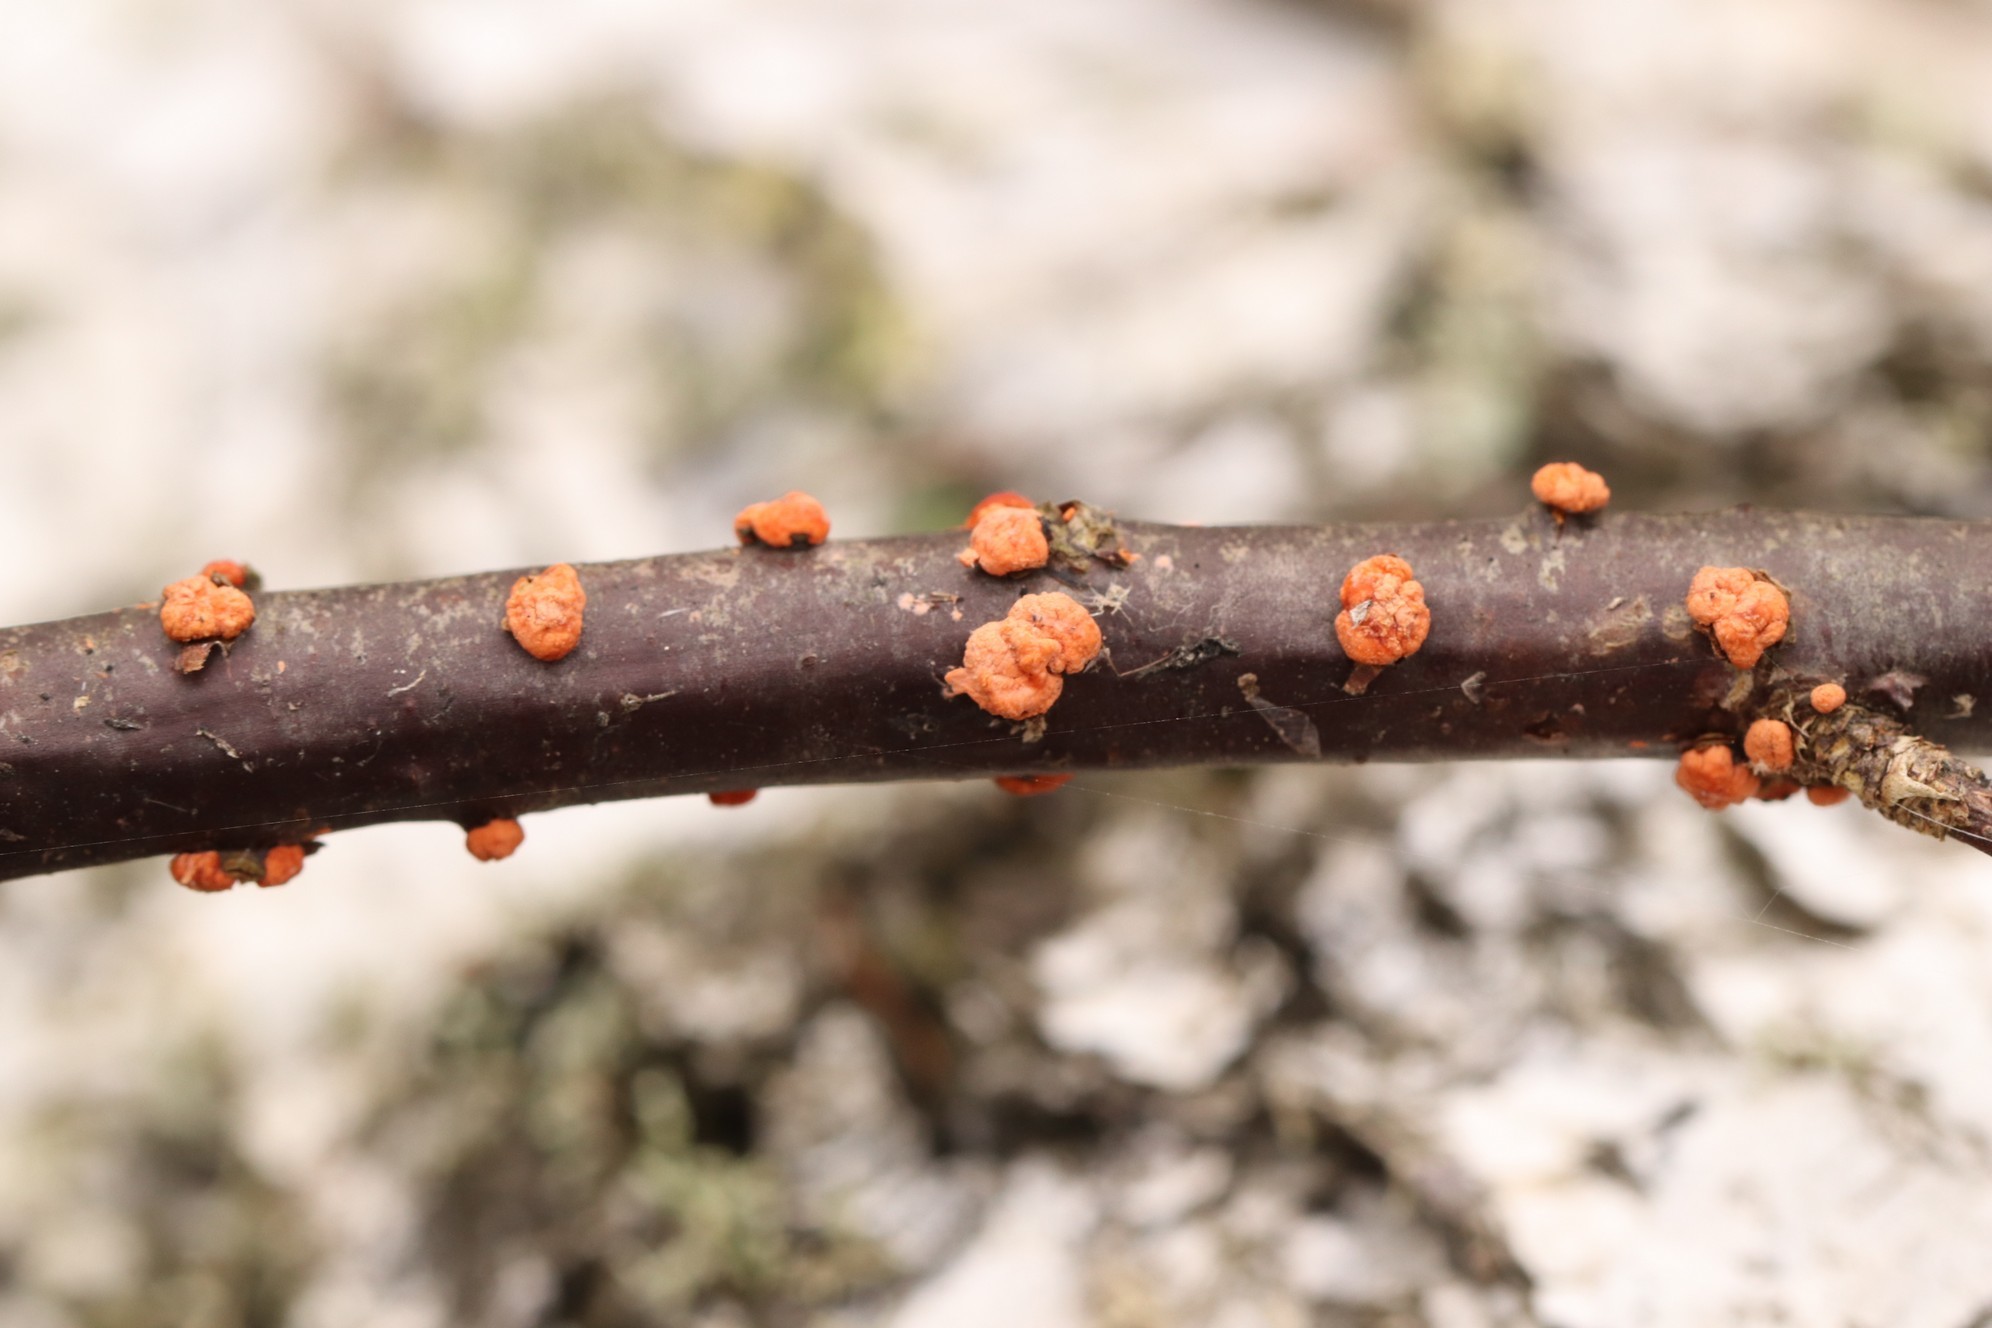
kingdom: Fungi
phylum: Ascomycota
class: Sordariomycetes
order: Hypocreales
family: Nectriaceae
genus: Nectria
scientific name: Nectria cinnabarina
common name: Coral spot
